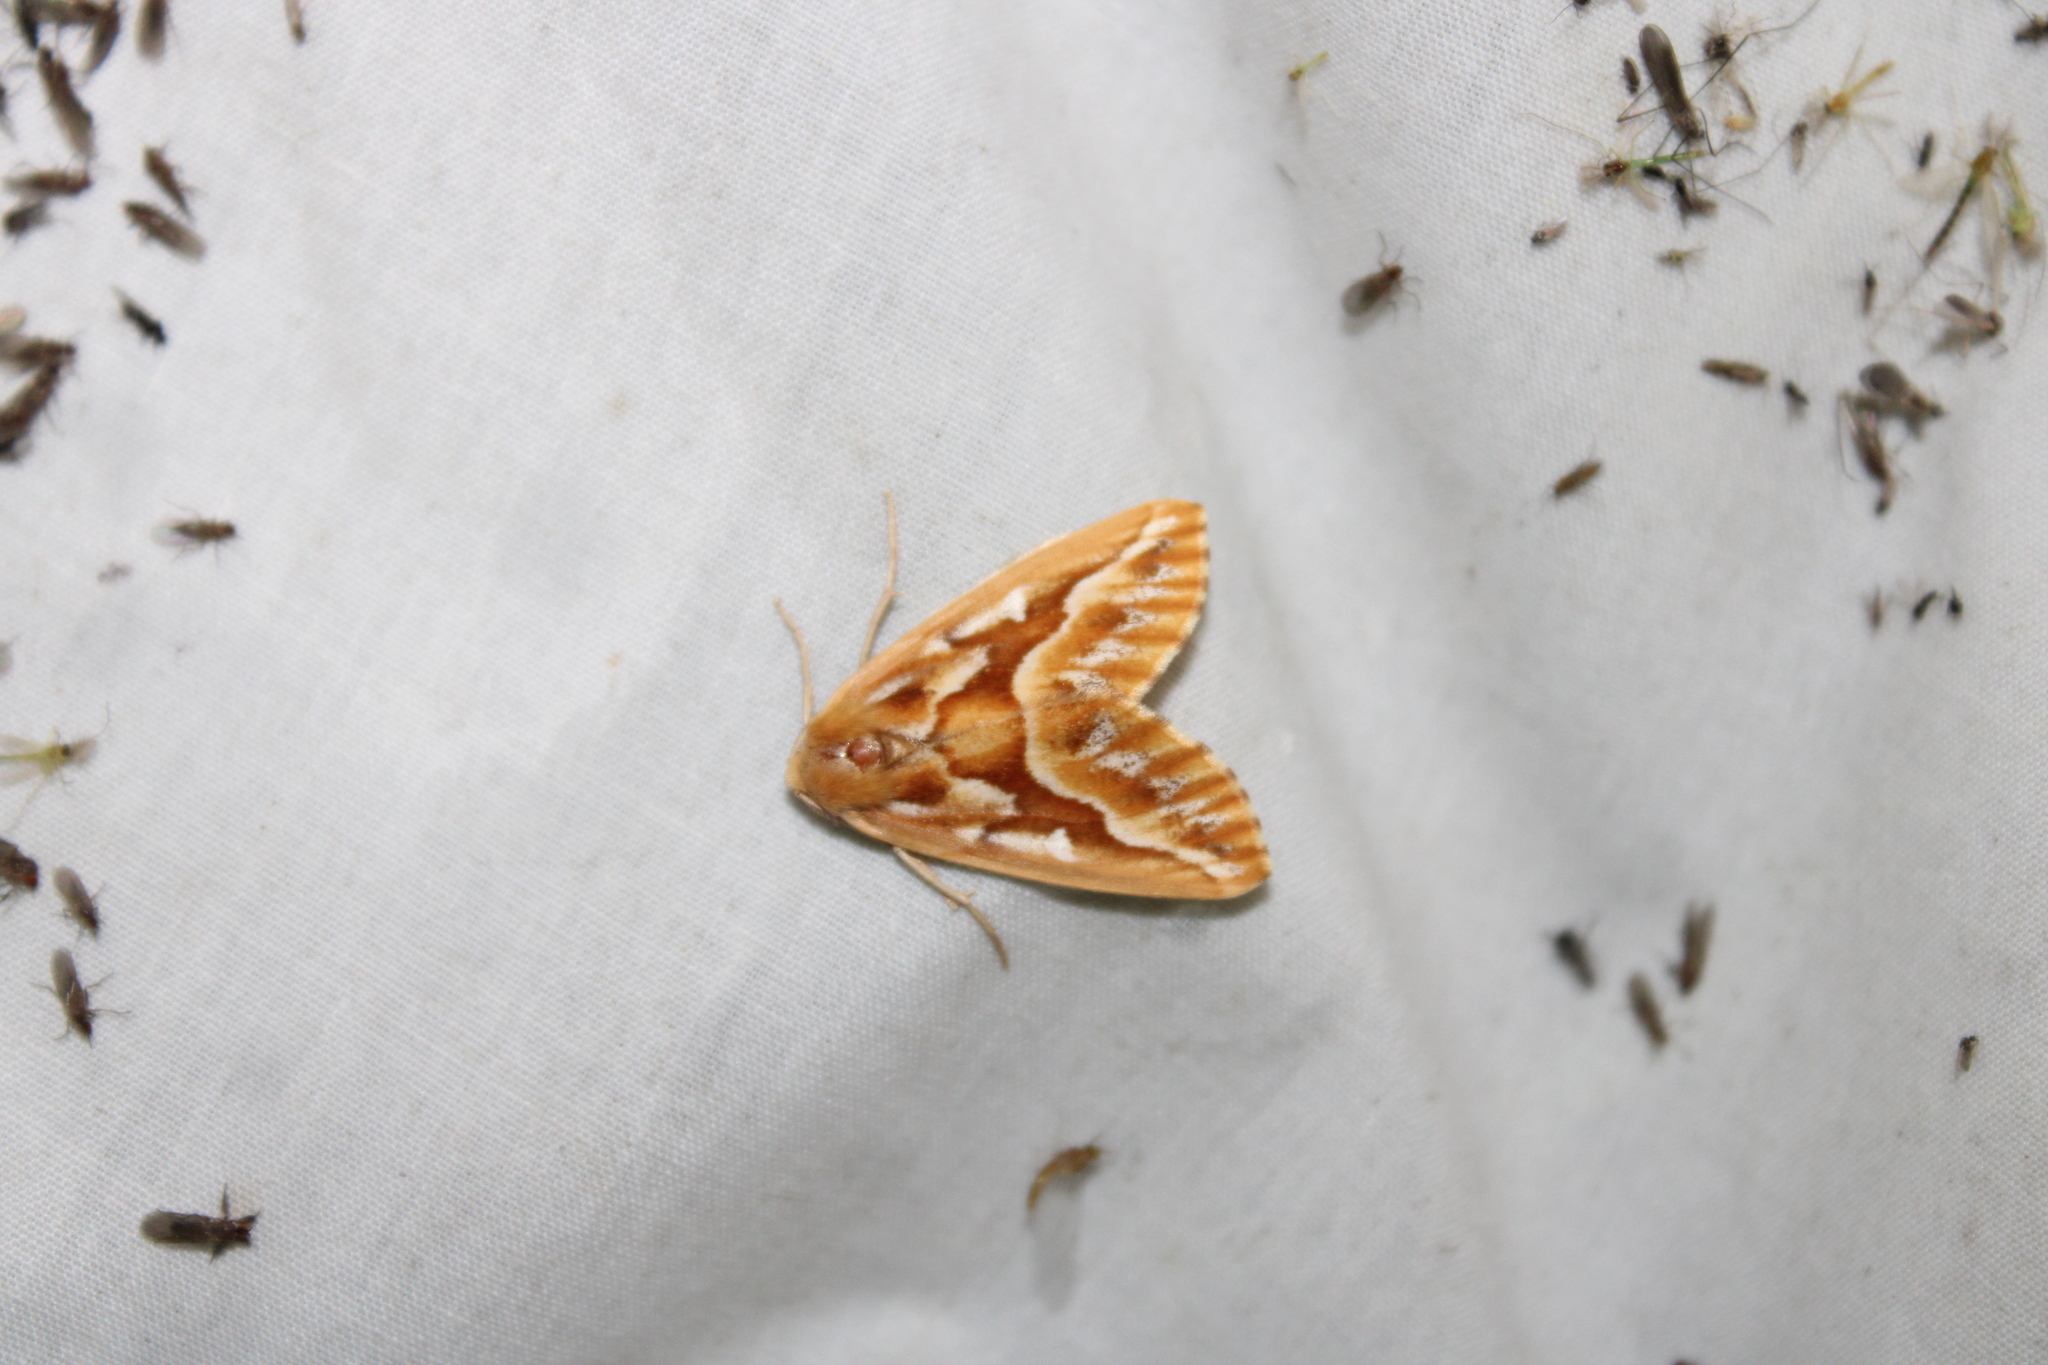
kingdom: Animalia
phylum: Arthropoda
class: Insecta
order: Lepidoptera
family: Geometridae
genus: Caripeta
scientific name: Caripeta piniata
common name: Northern pine looper moth
